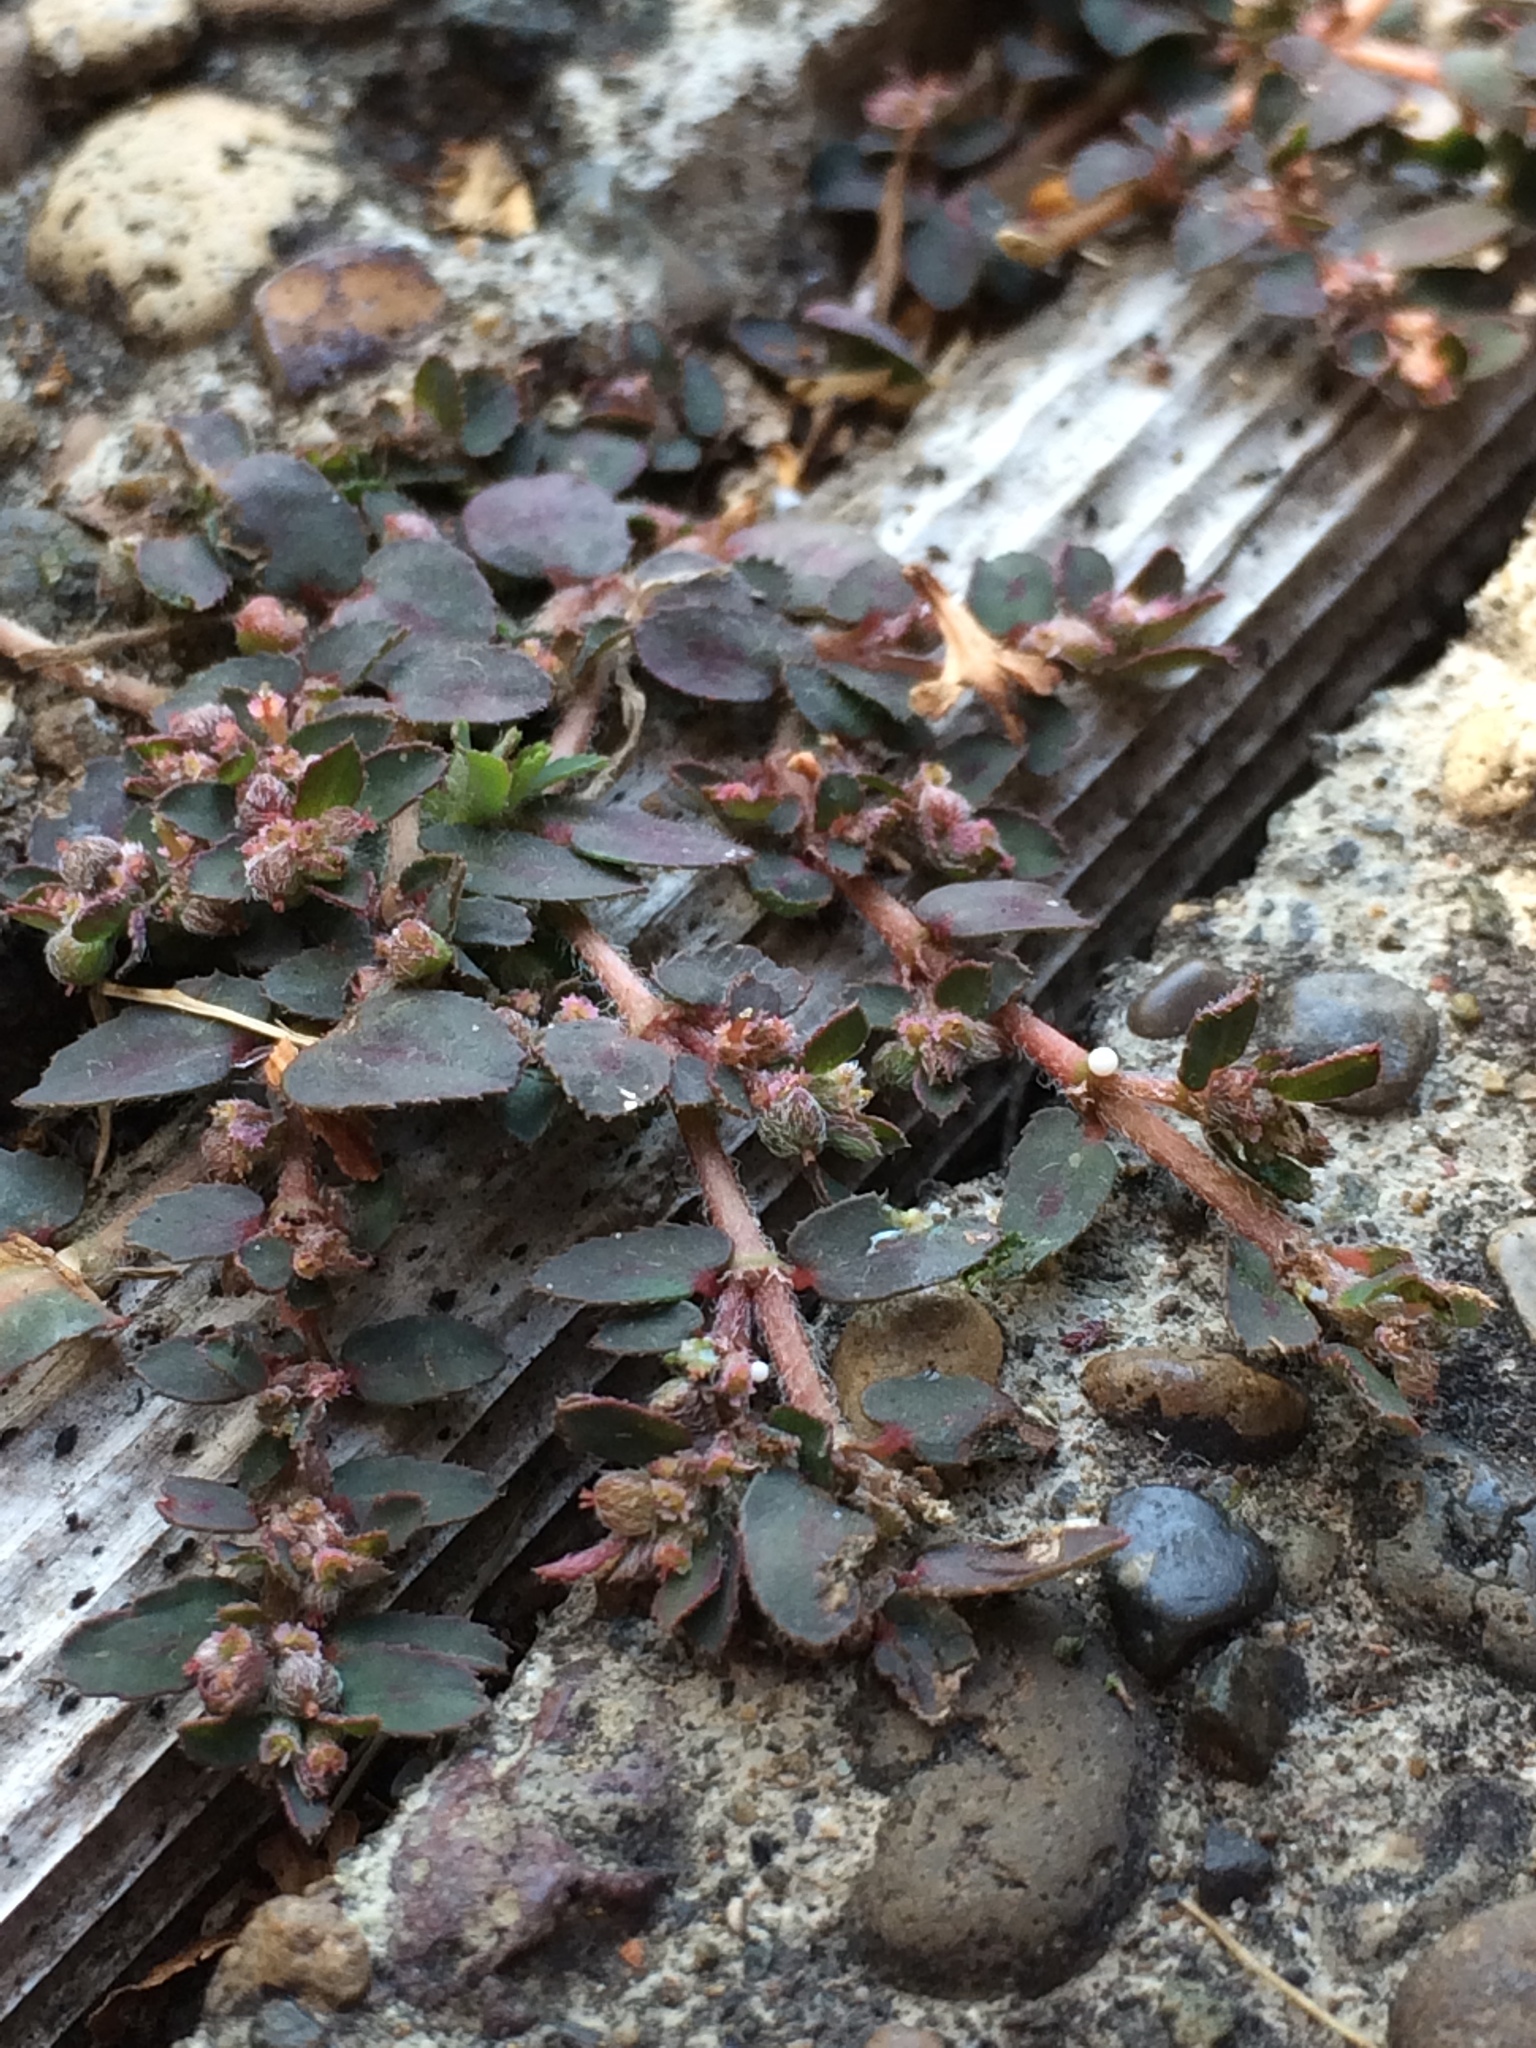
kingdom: Plantae
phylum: Tracheophyta
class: Magnoliopsida
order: Malpighiales
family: Euphorbiaceae
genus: Euphorbia
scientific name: Euphorbia maculata
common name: Spotted spurge
